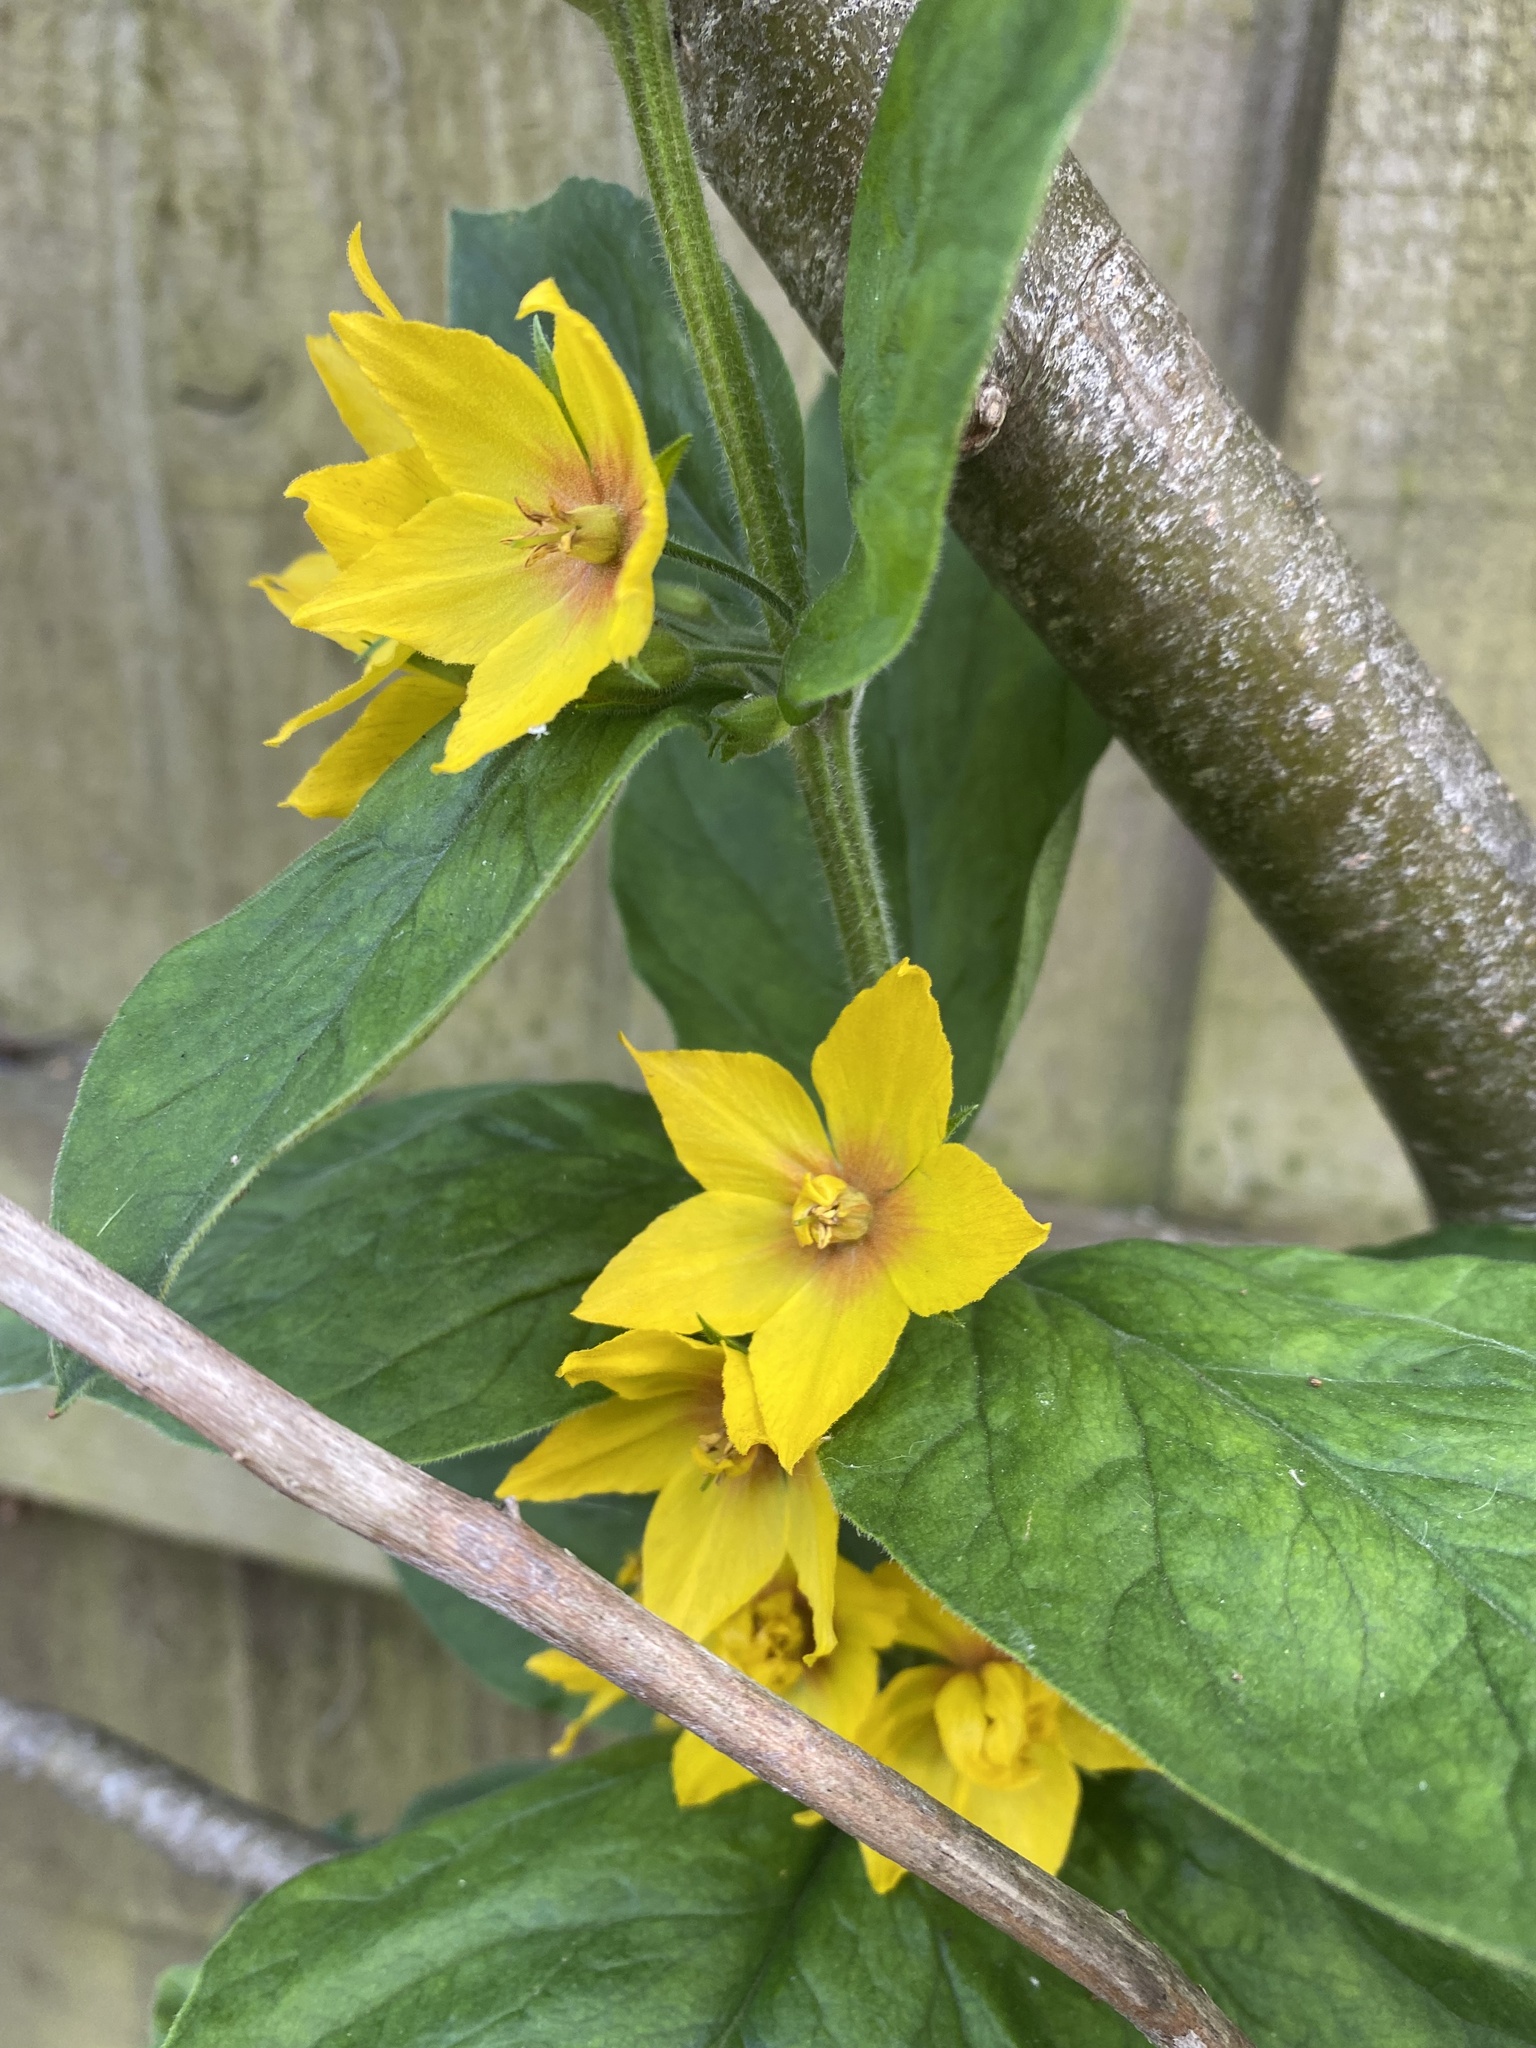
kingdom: Plantae
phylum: Tracheophyta
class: Magnoliopsida
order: Ericales
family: Primulaceae
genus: Lysimachia
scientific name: Lysimachia punctata
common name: Dotted loosestrife
